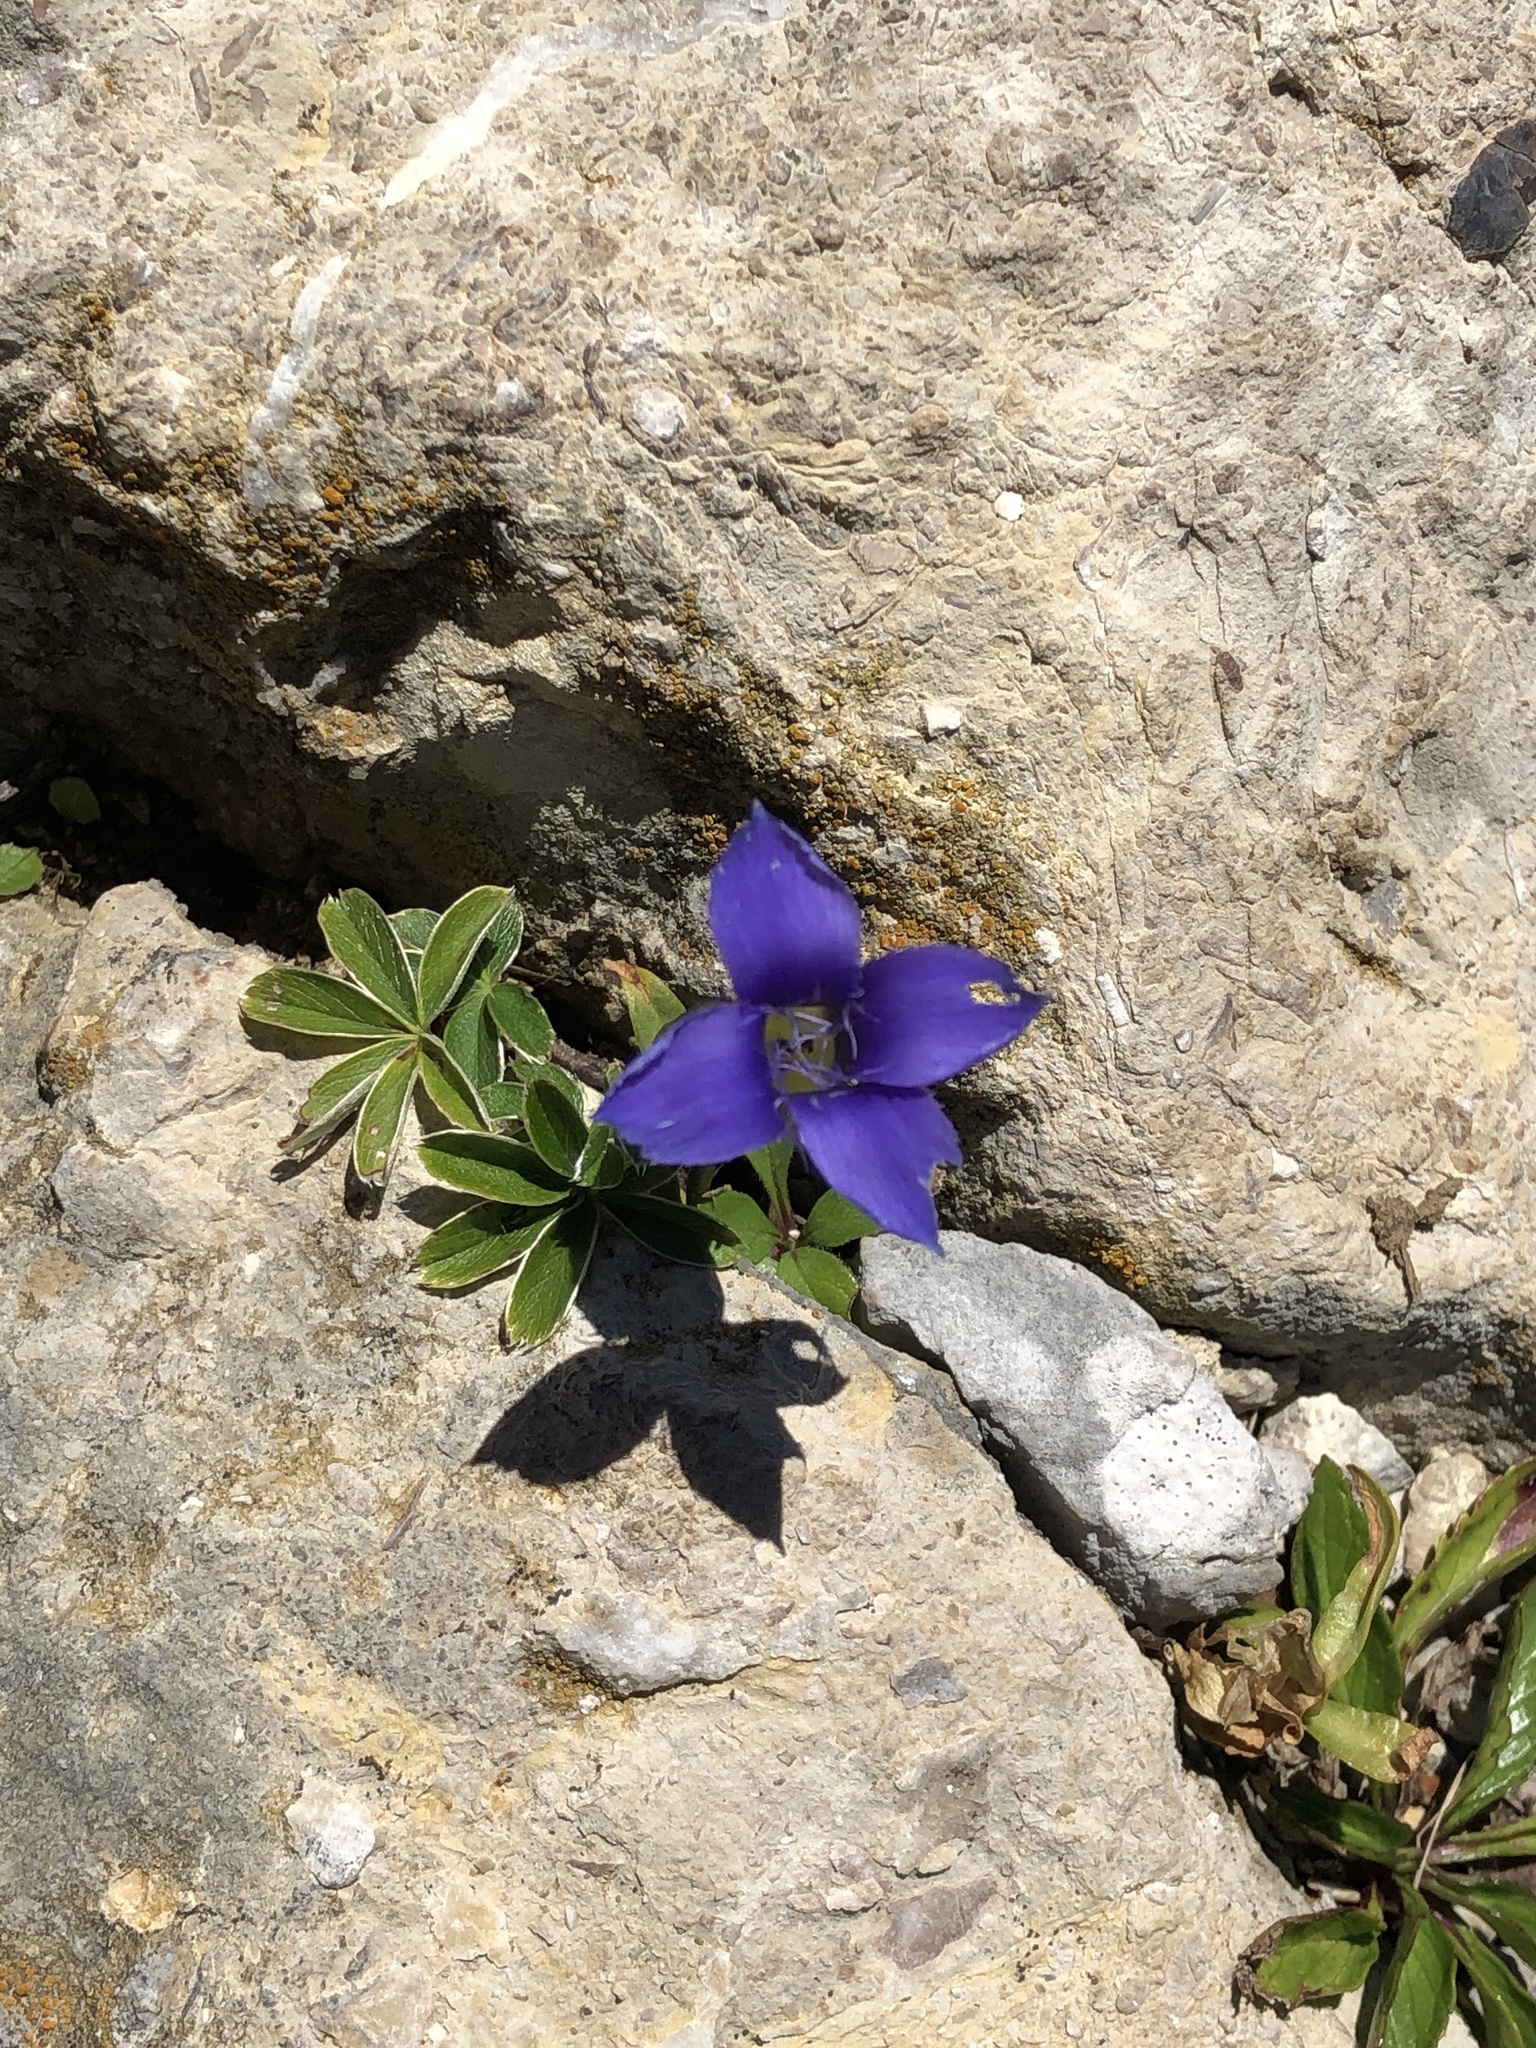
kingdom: Plantae
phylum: Tracheophyta
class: Magnoliopsida
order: Gentianales
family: Gentianaceae
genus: Gentianopsis
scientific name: Gentianopsis ciliata
